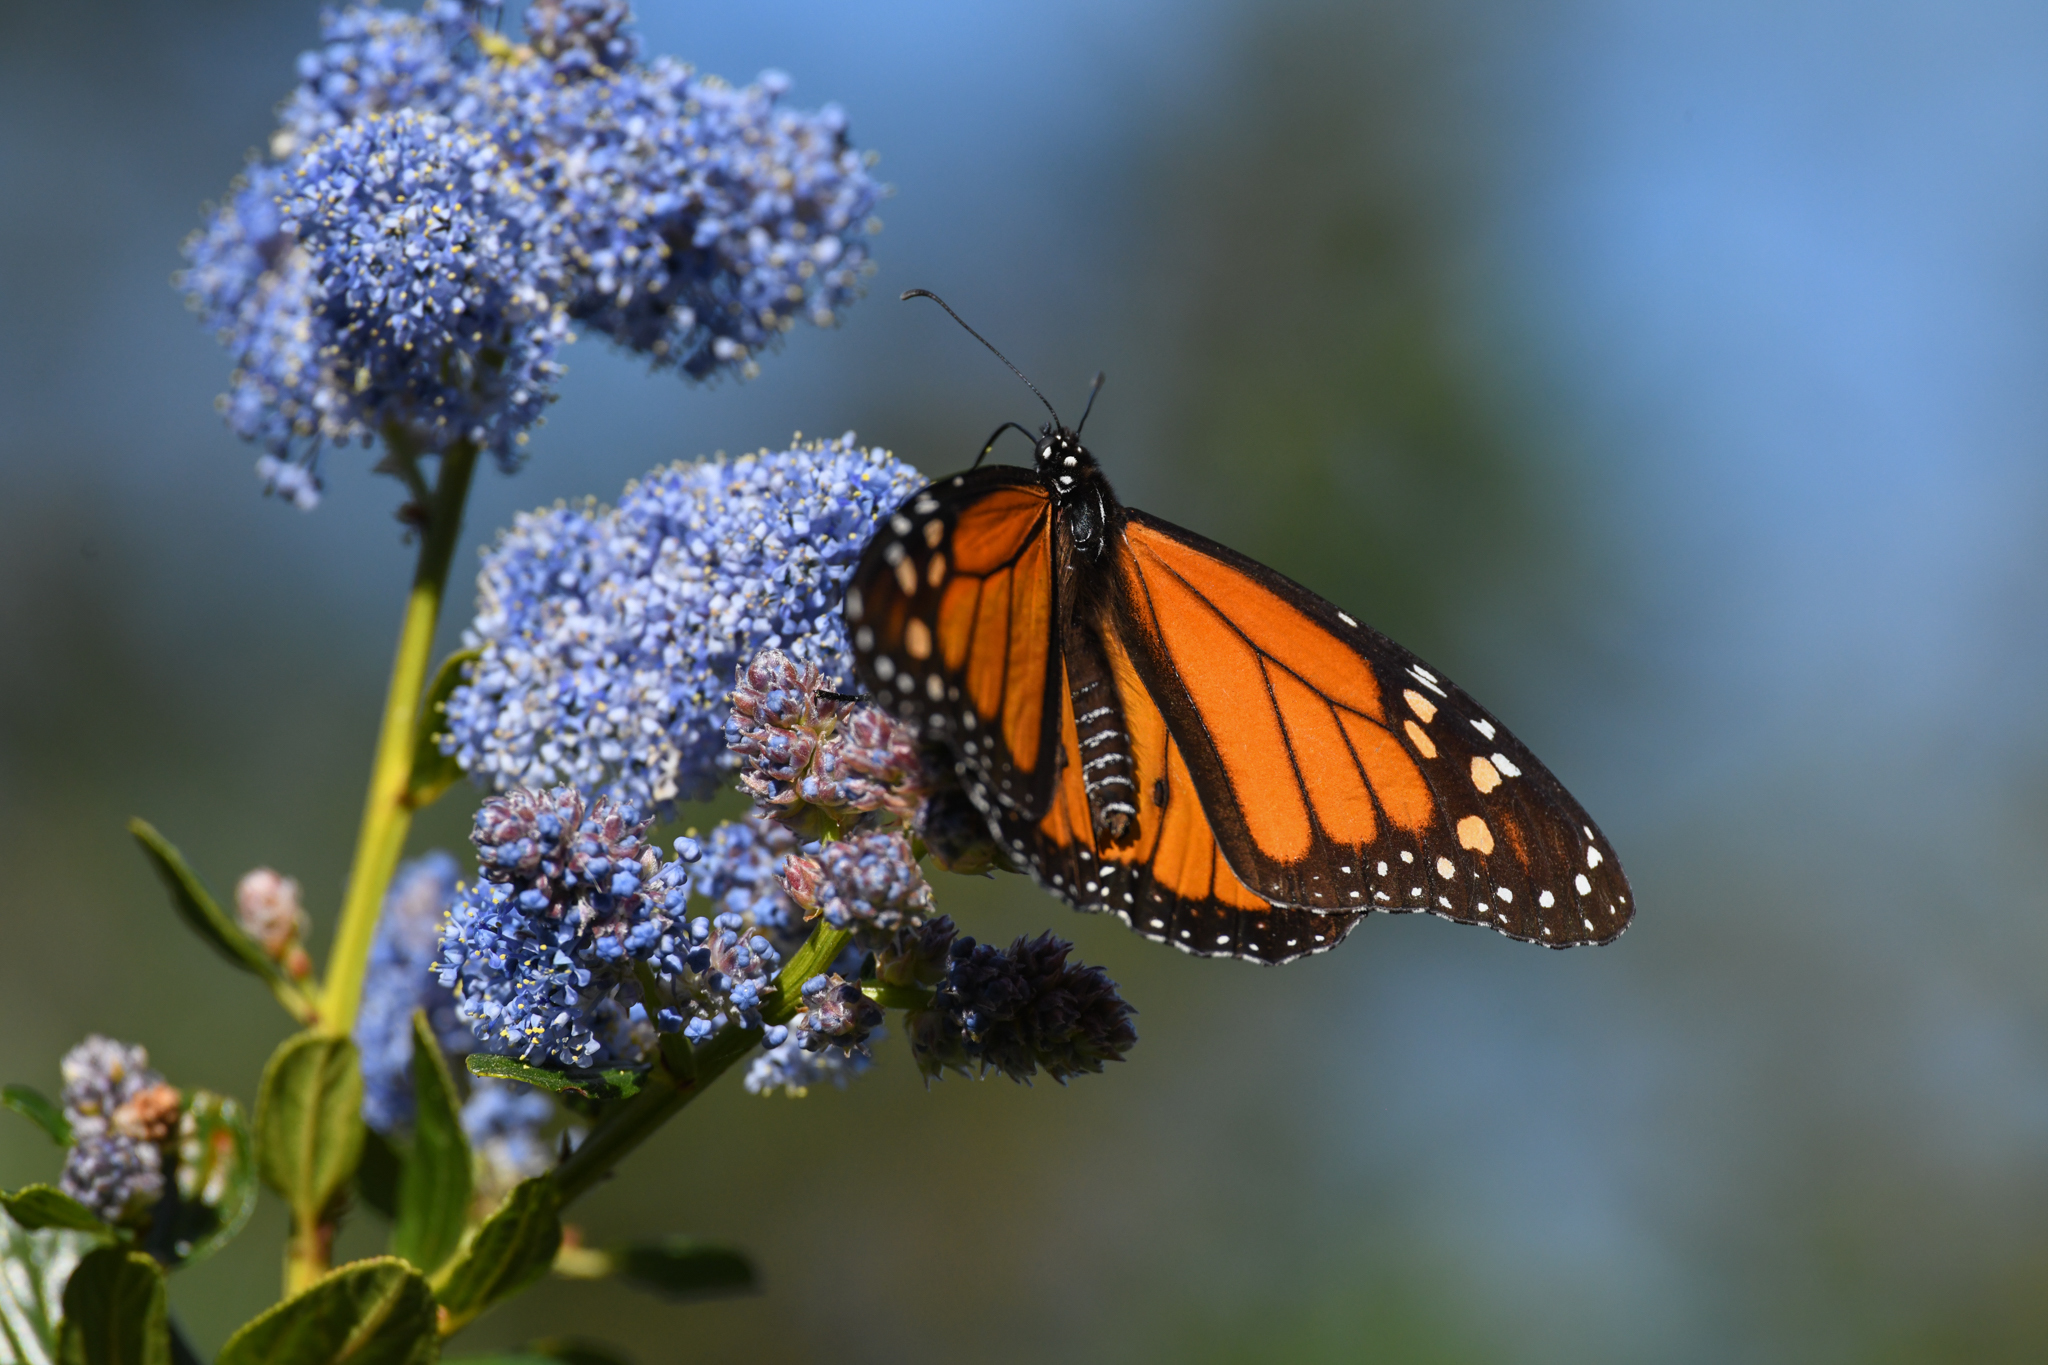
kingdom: Animalia
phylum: Arthropoda
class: Insecta
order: Lepidoptera
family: Nymphalidae
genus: Danaus
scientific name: Danaus plexippus
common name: Monarch
